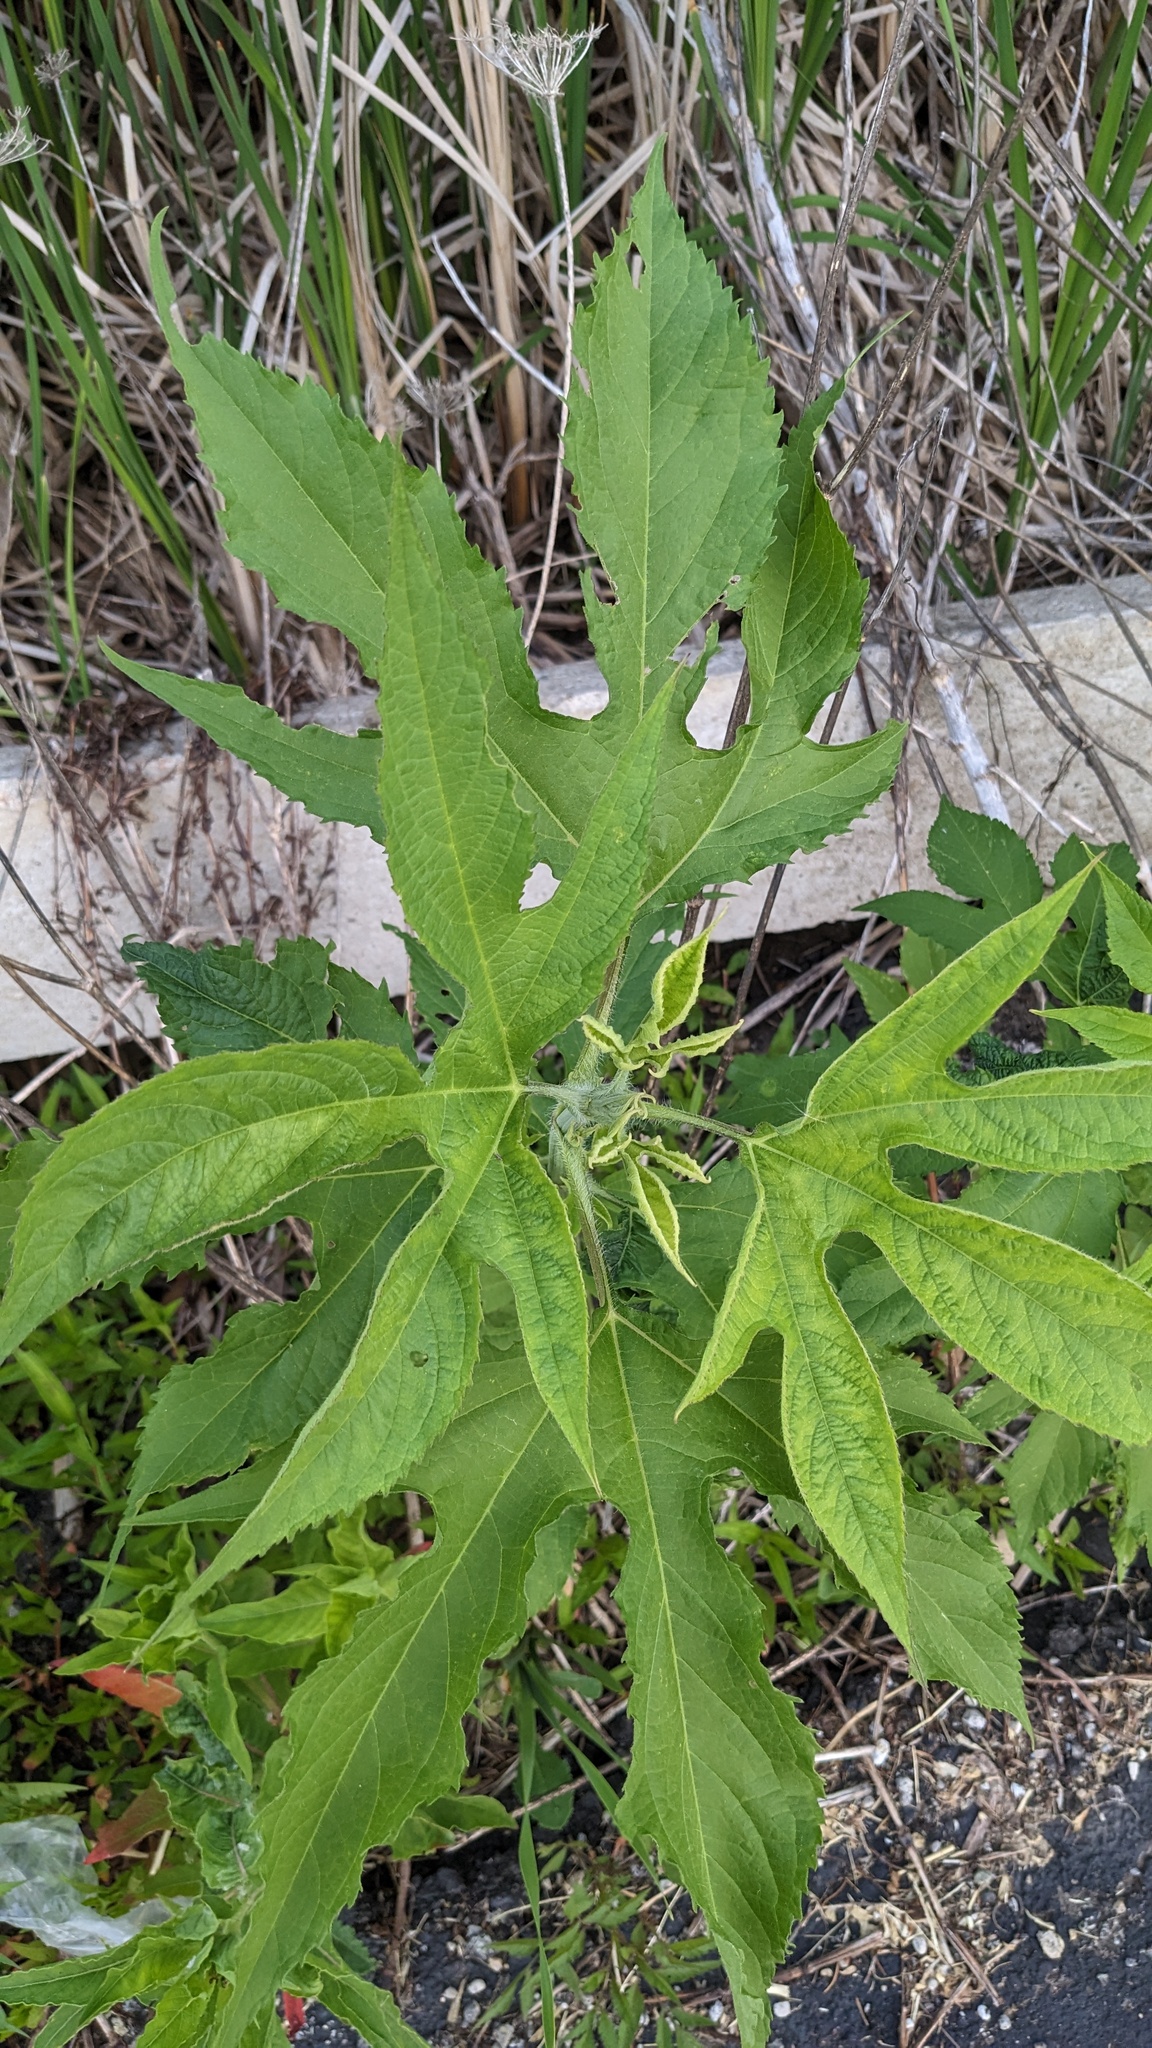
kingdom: Plantae
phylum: Tracheophyta
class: Magnoliopsida
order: Asterales
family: Asteraceae
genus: Ambrosia
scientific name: Ambrosia trifida
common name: Giant ragweed
